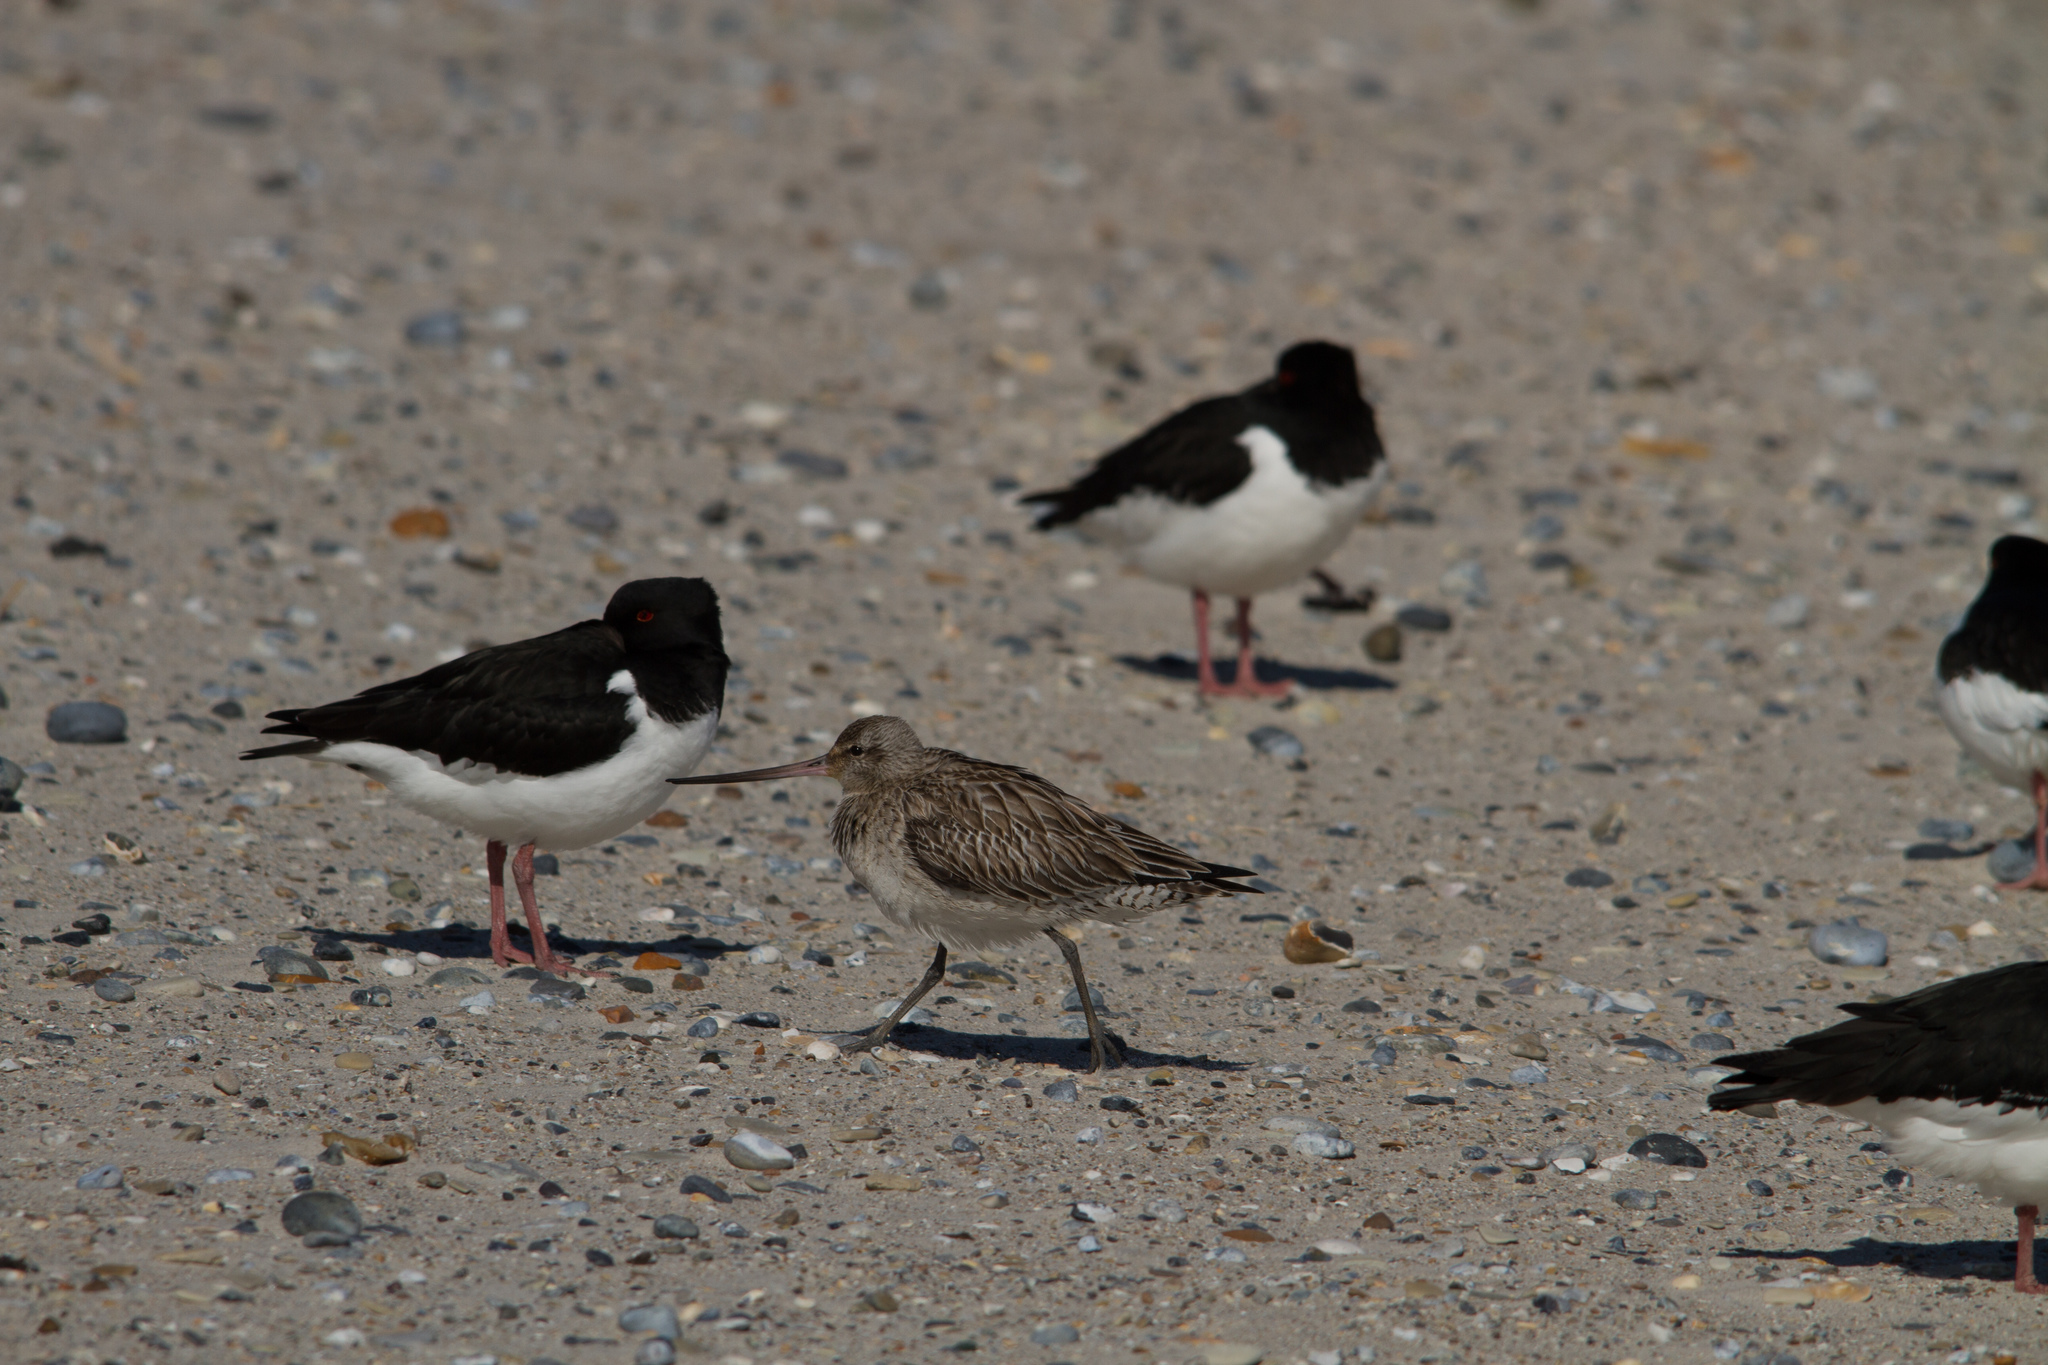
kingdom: Animalia
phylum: Chordata
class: Aves
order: Charadriiformes
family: Scolopacidae
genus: Limosa
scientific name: Limosa lapponica
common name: Bar-tailed godwit
